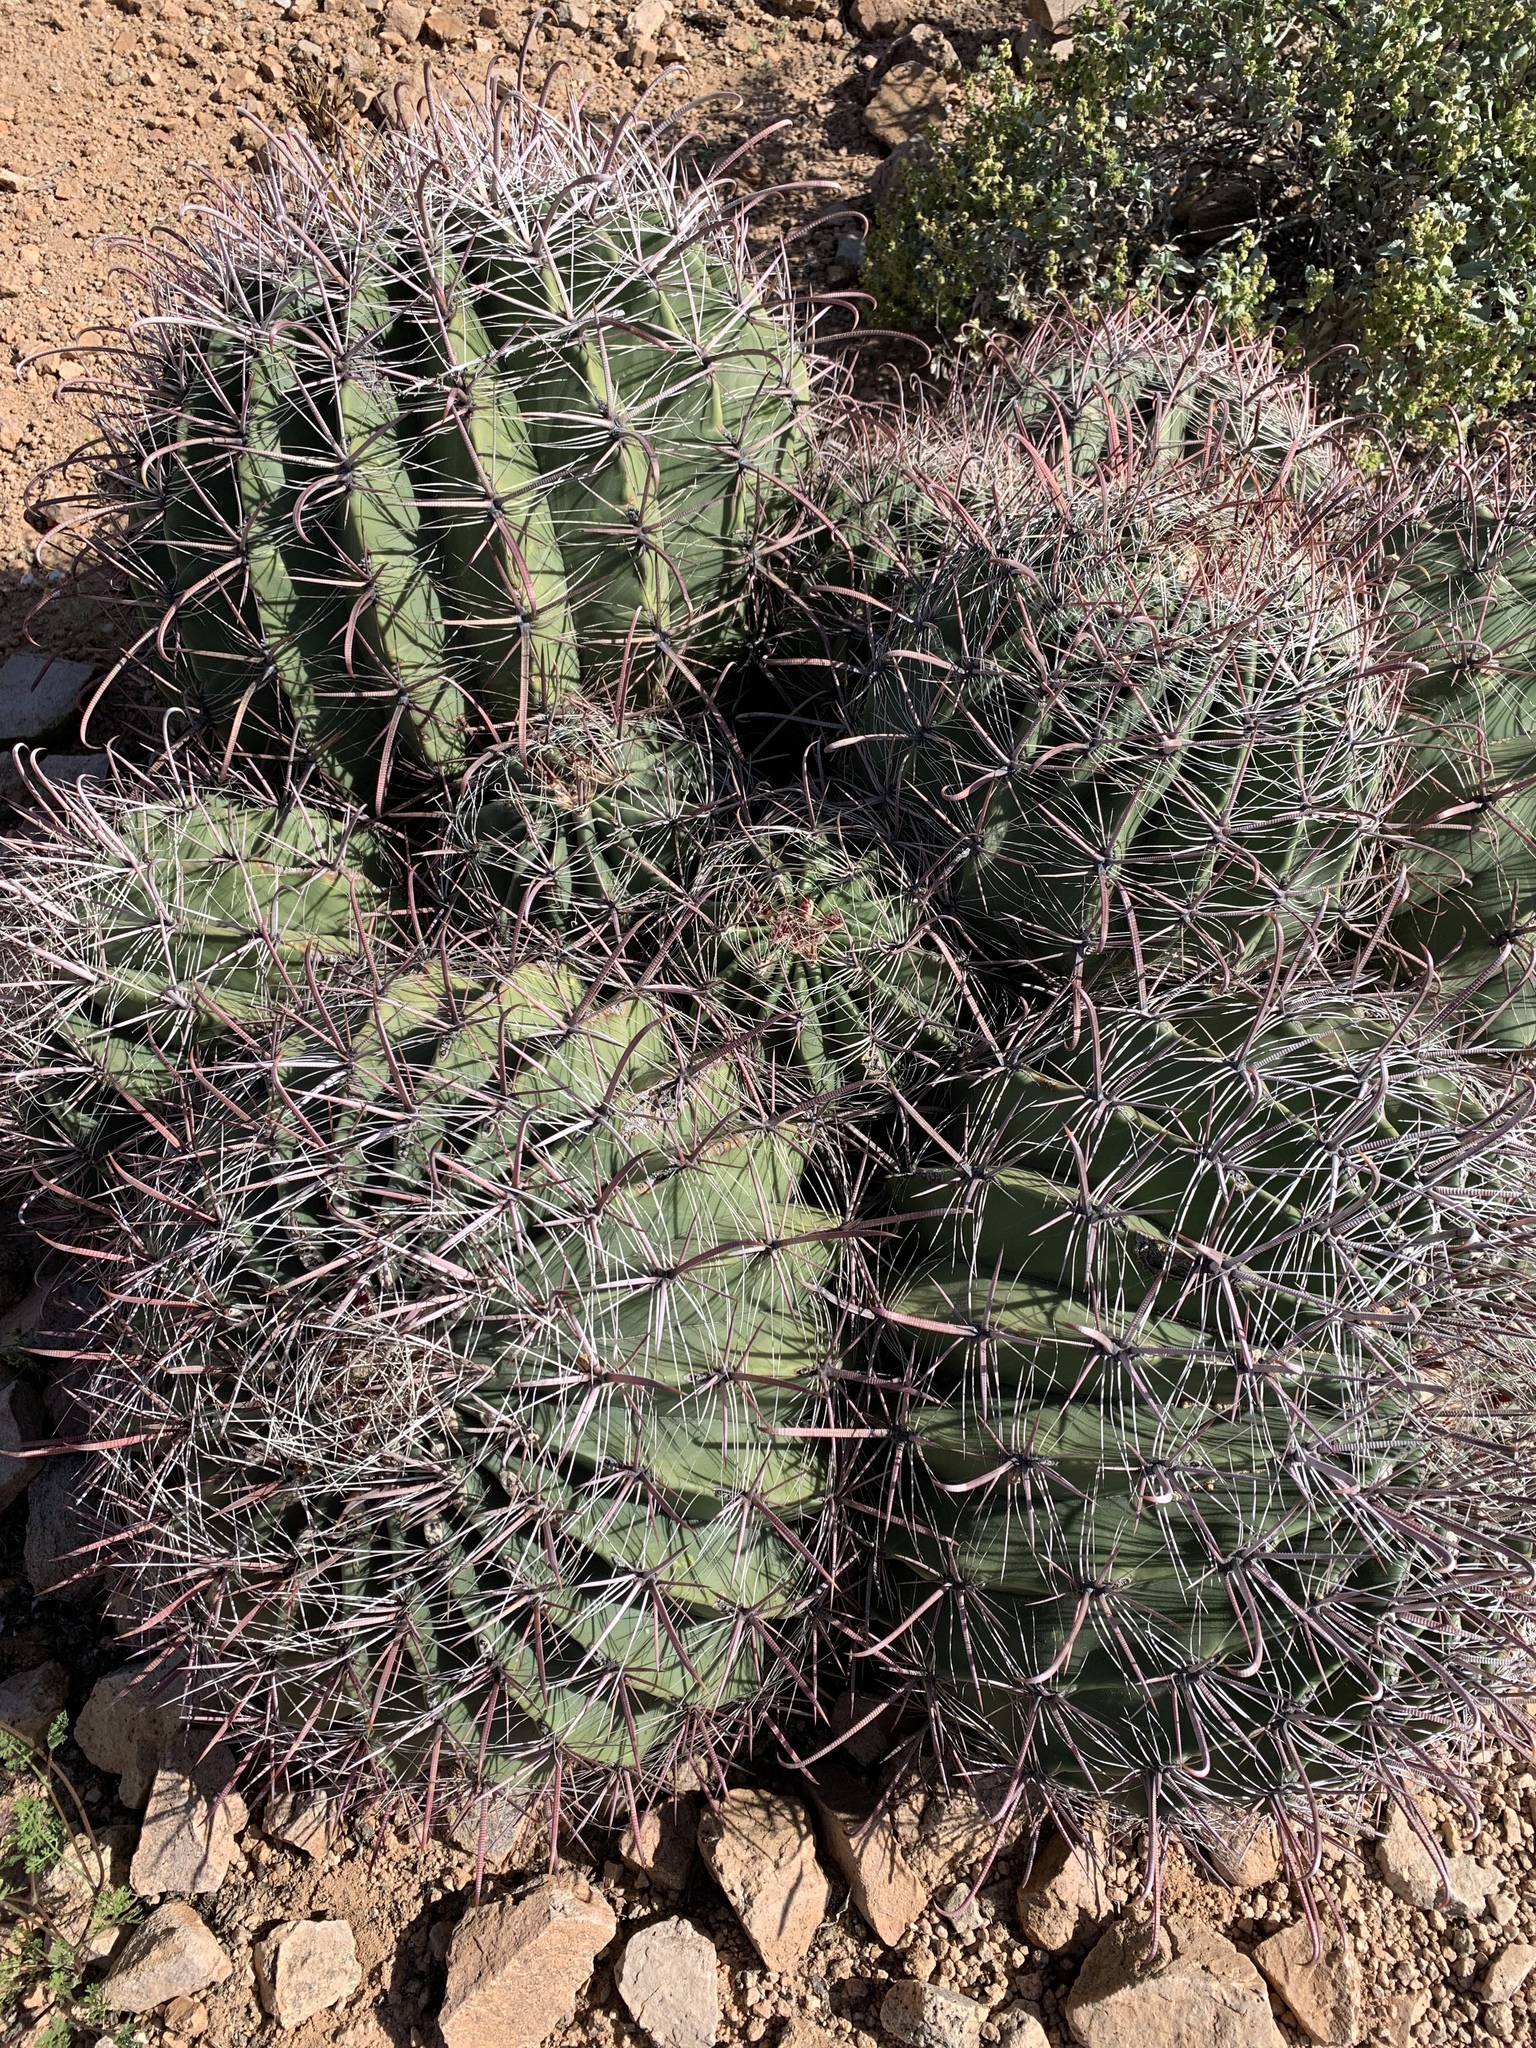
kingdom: Plantae
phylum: Tracheophyta
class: Magnoliopsida
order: Caryophyllales
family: Cactaceae
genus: Ferocactus
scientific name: Ferocactus wislizeni
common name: Candy barrel cactus
